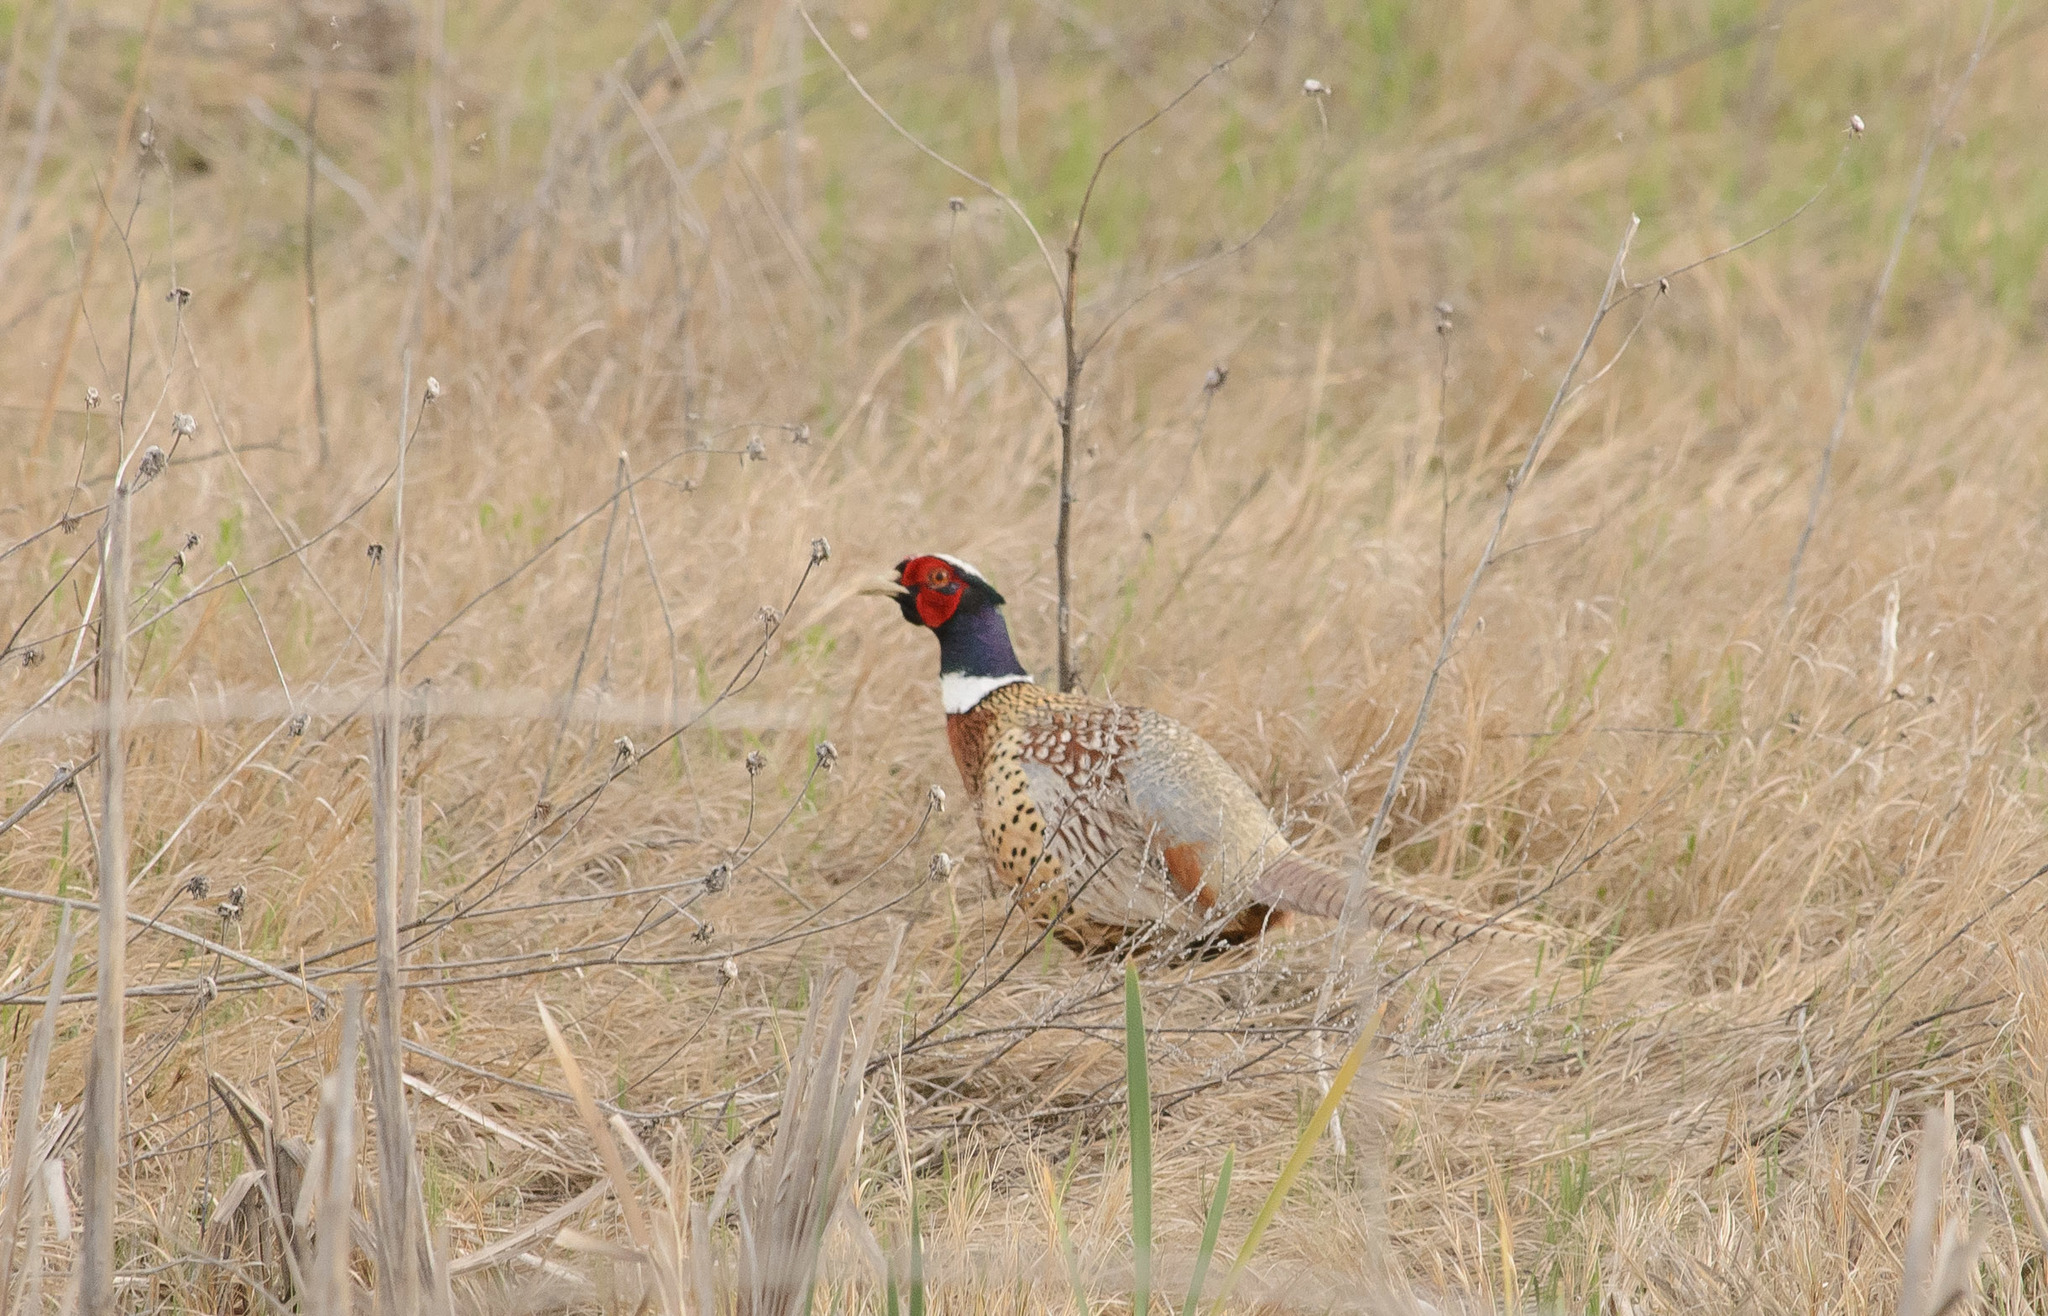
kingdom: Animalia
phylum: Chordata
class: Aves
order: Galliformes
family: Phasianidae
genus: Phasianus
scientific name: Phasianus colchicus
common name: Common pheasant
